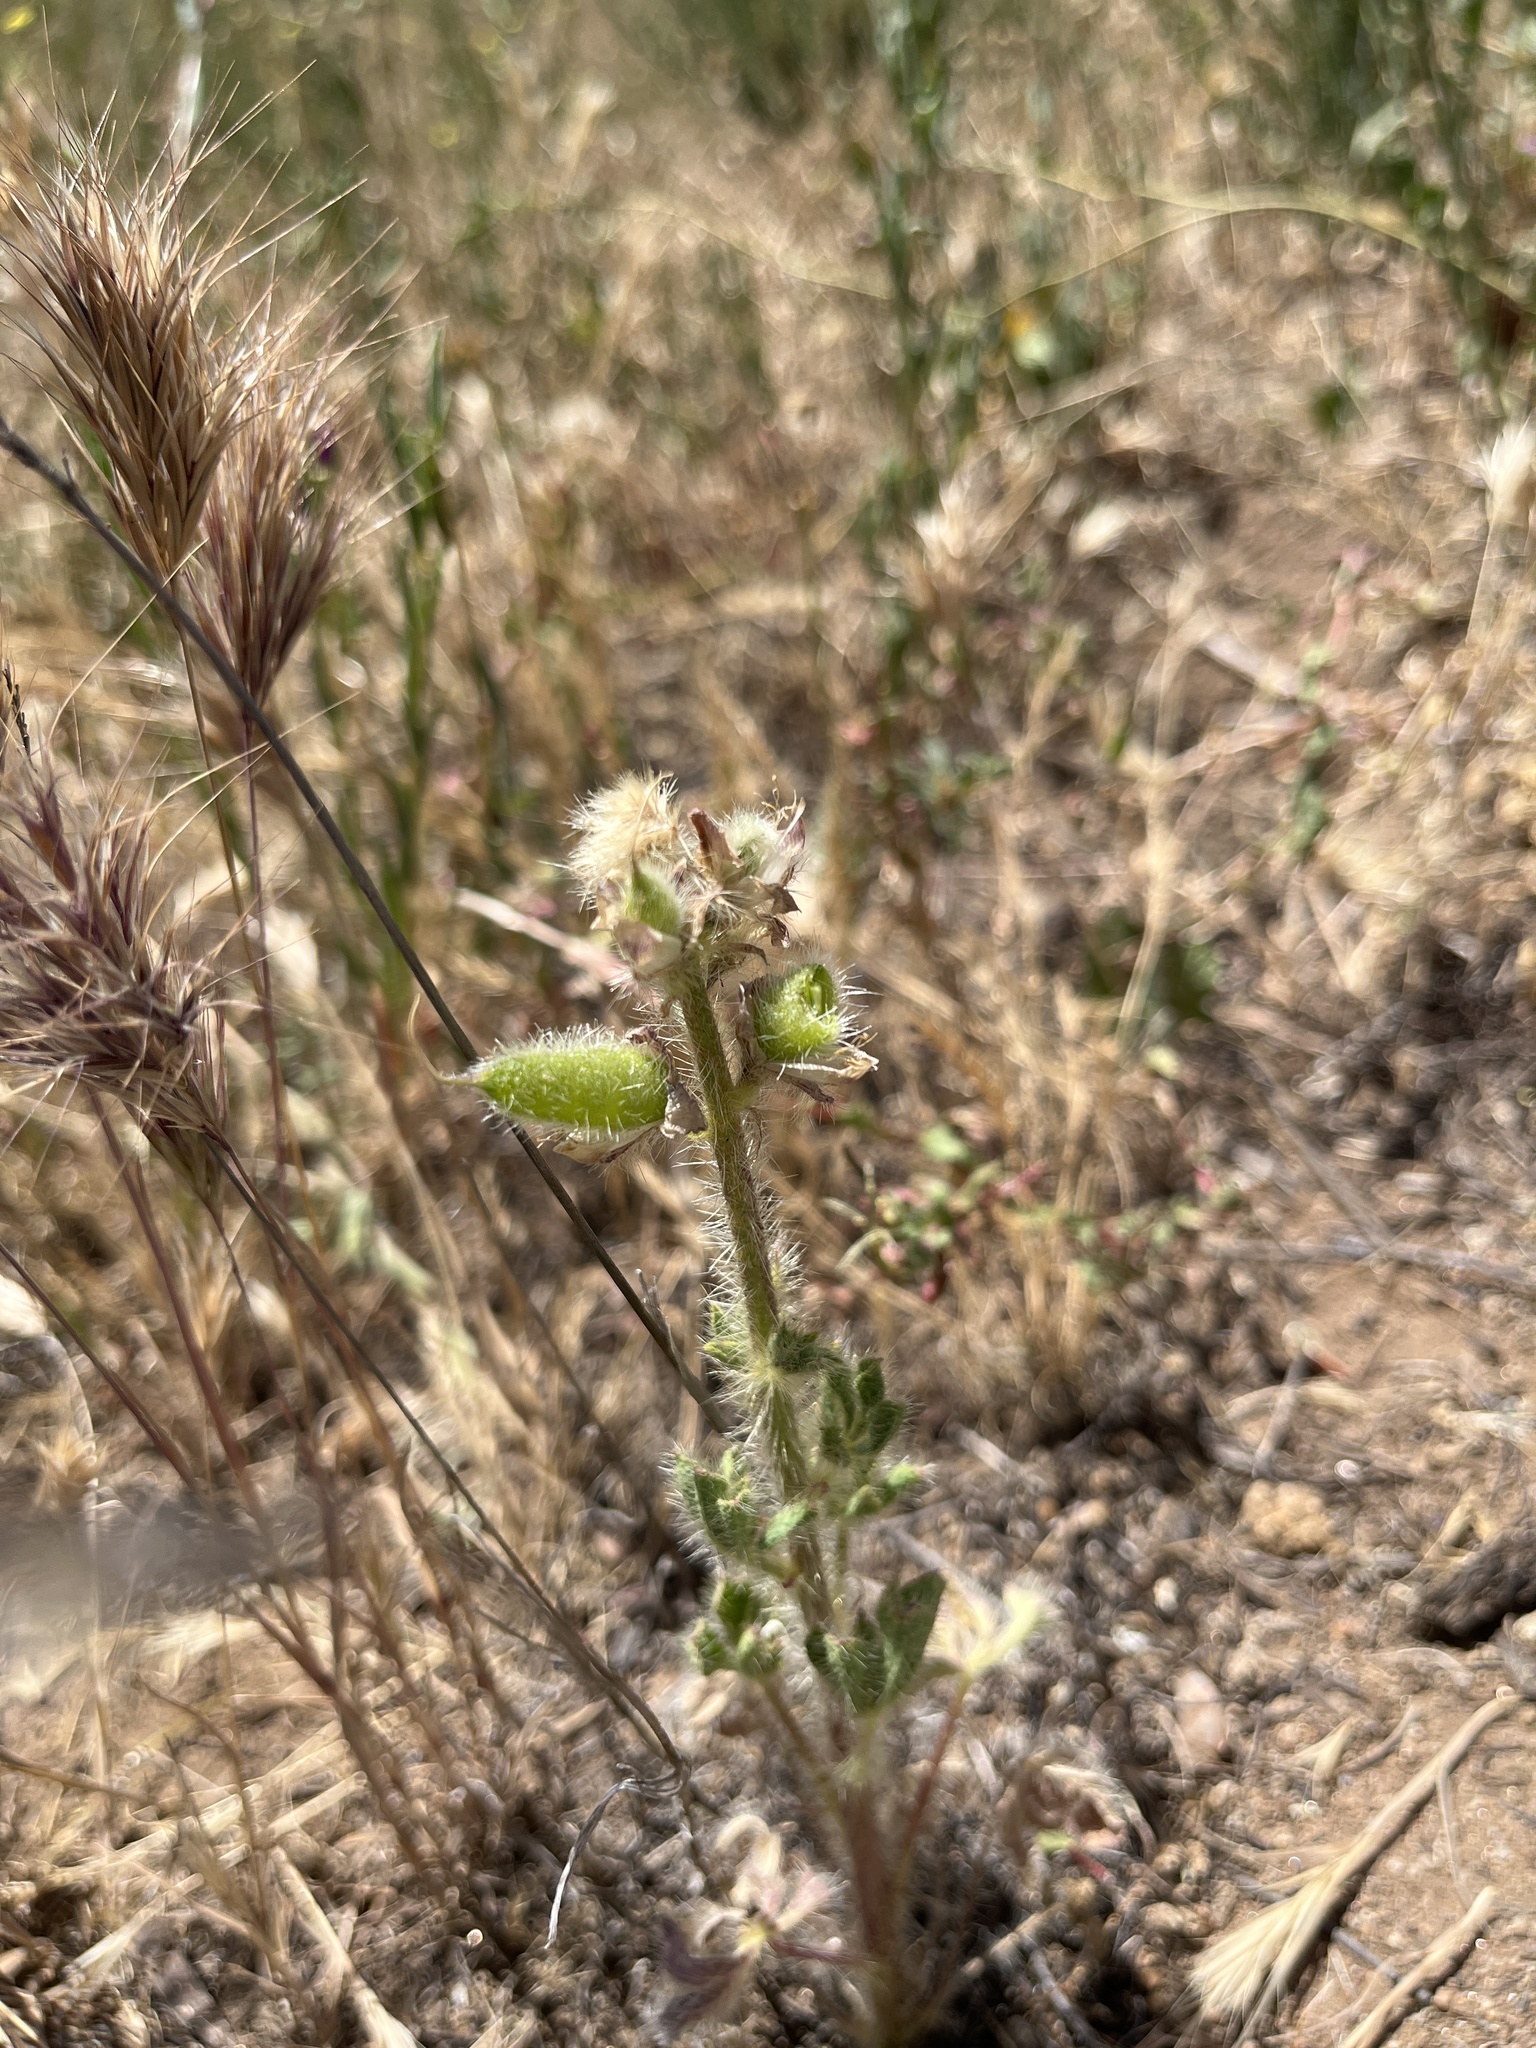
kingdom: Plantae
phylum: Tracheophyta
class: Magnoliopsida
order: Fabales
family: Fabaceae
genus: Lupinus
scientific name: Lupinus hirsutissimus
